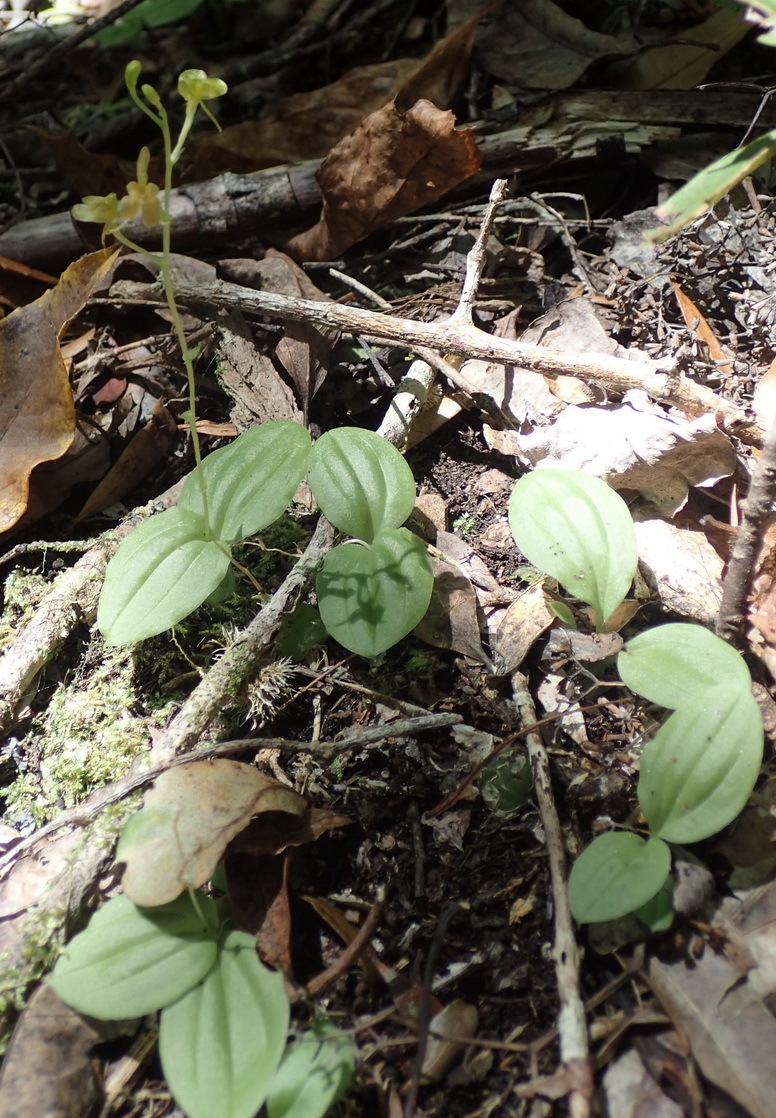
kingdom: Plantae
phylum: Tracheophyta
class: Liliopsida
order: Asparagales
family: Orchidaceae
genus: Liparis
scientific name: Liparis remota
